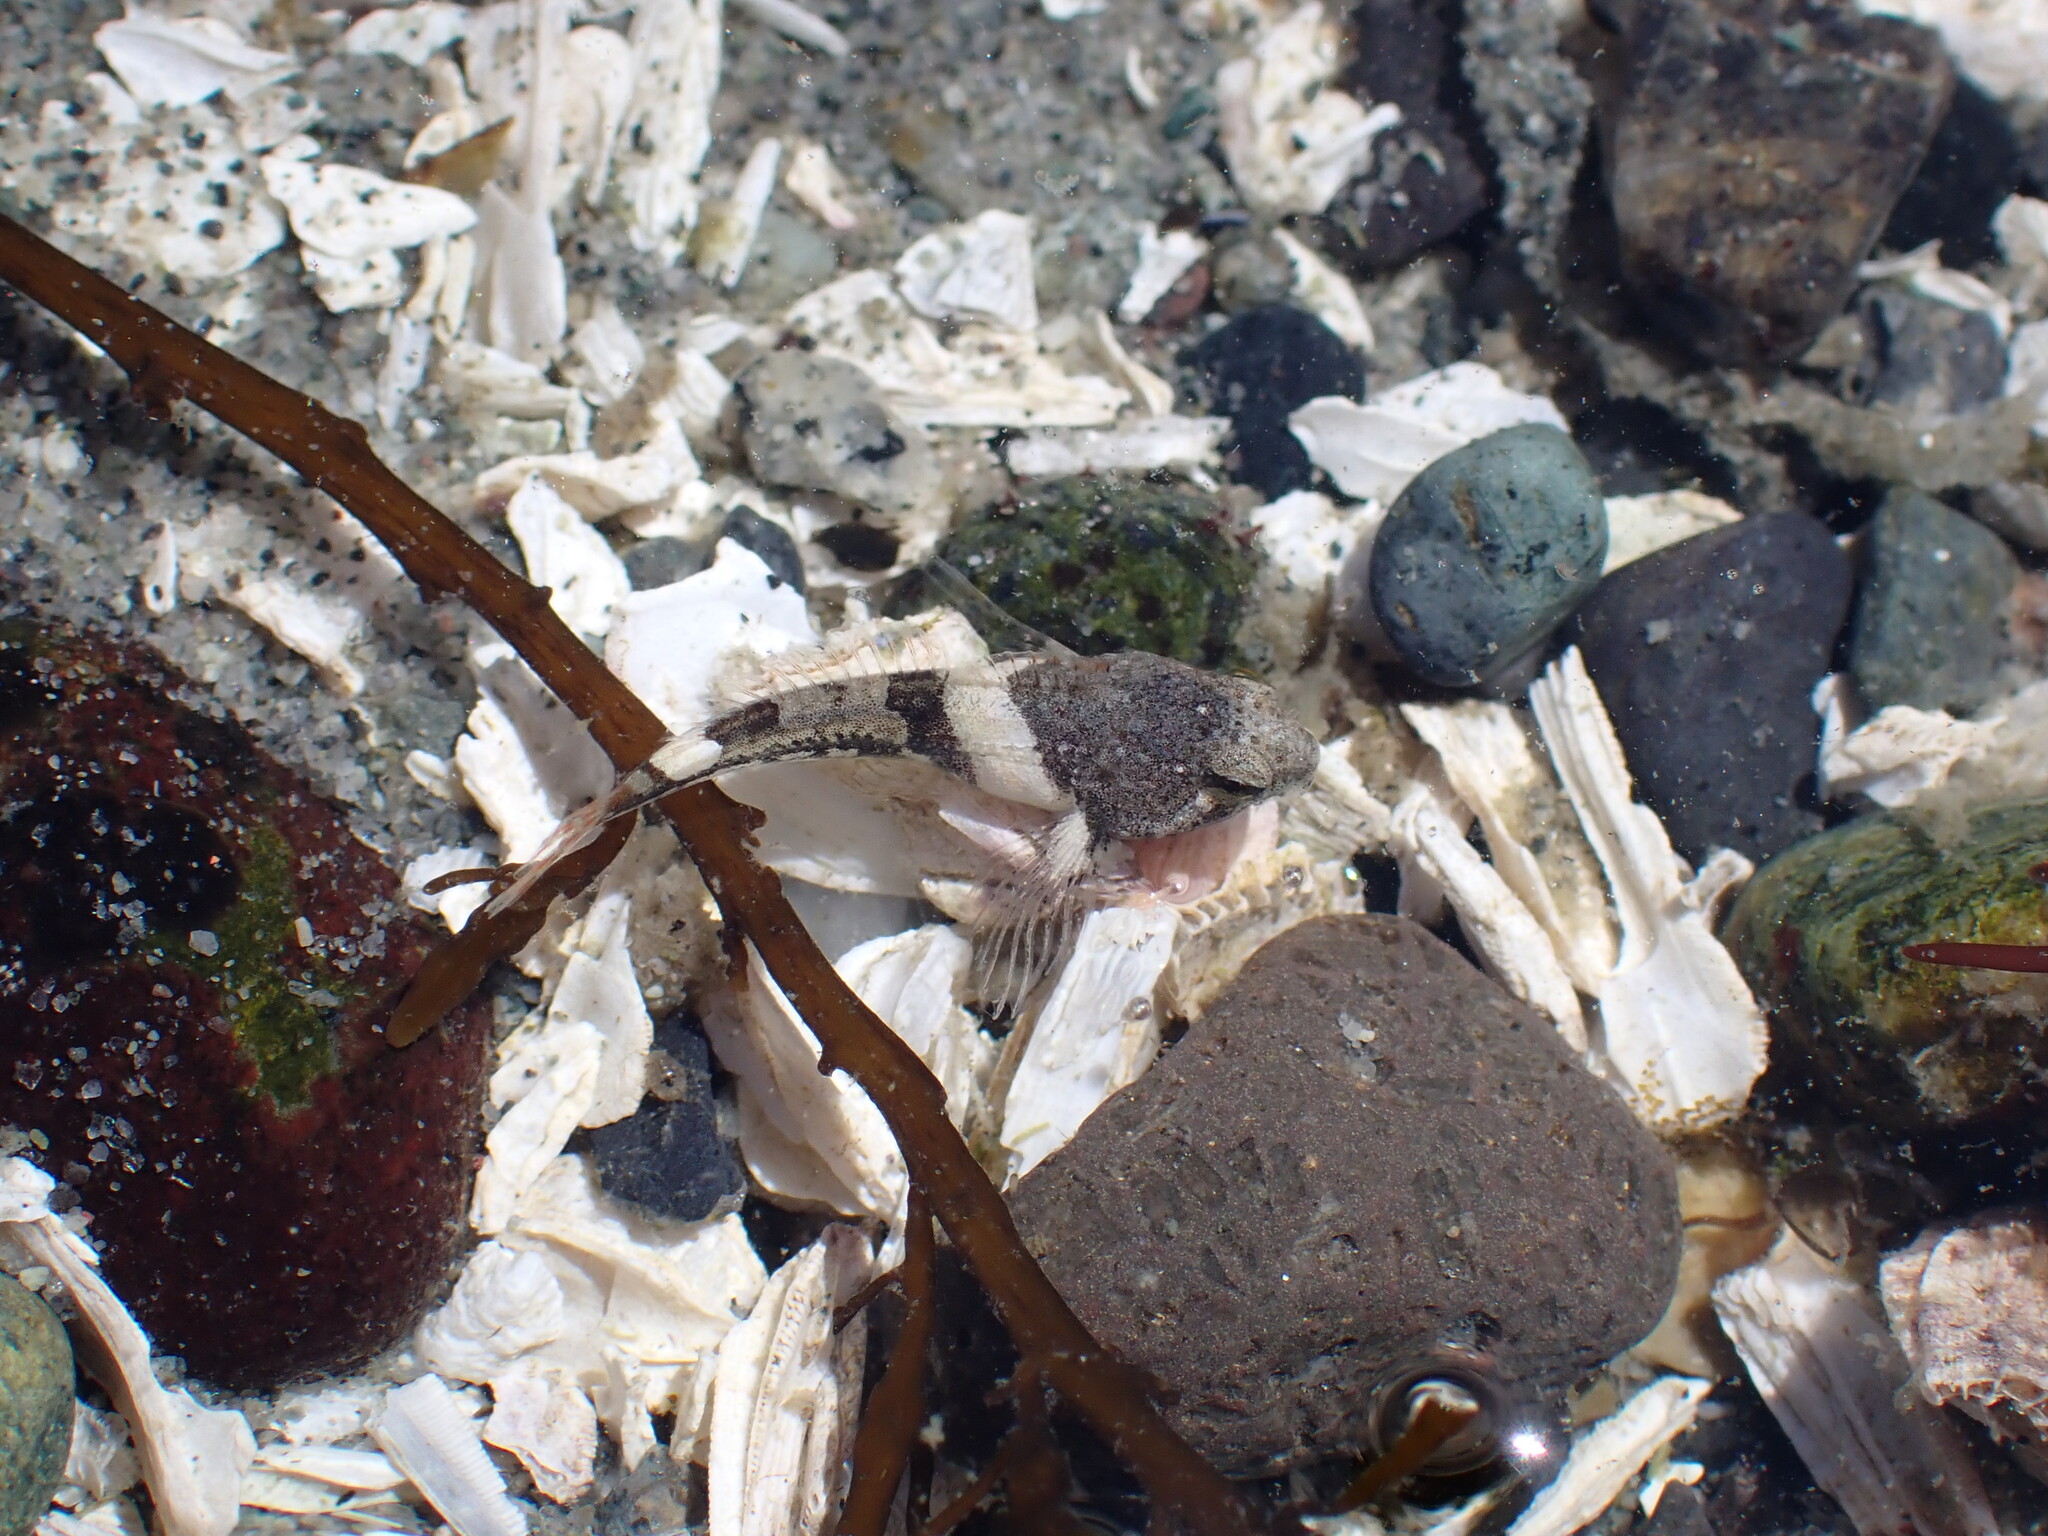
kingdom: Animalia
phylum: Chordata
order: Scorpaeniformes
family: Cottidae
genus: Oligocottus
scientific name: Oligocottus maculosus
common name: Tidepool sculpin
